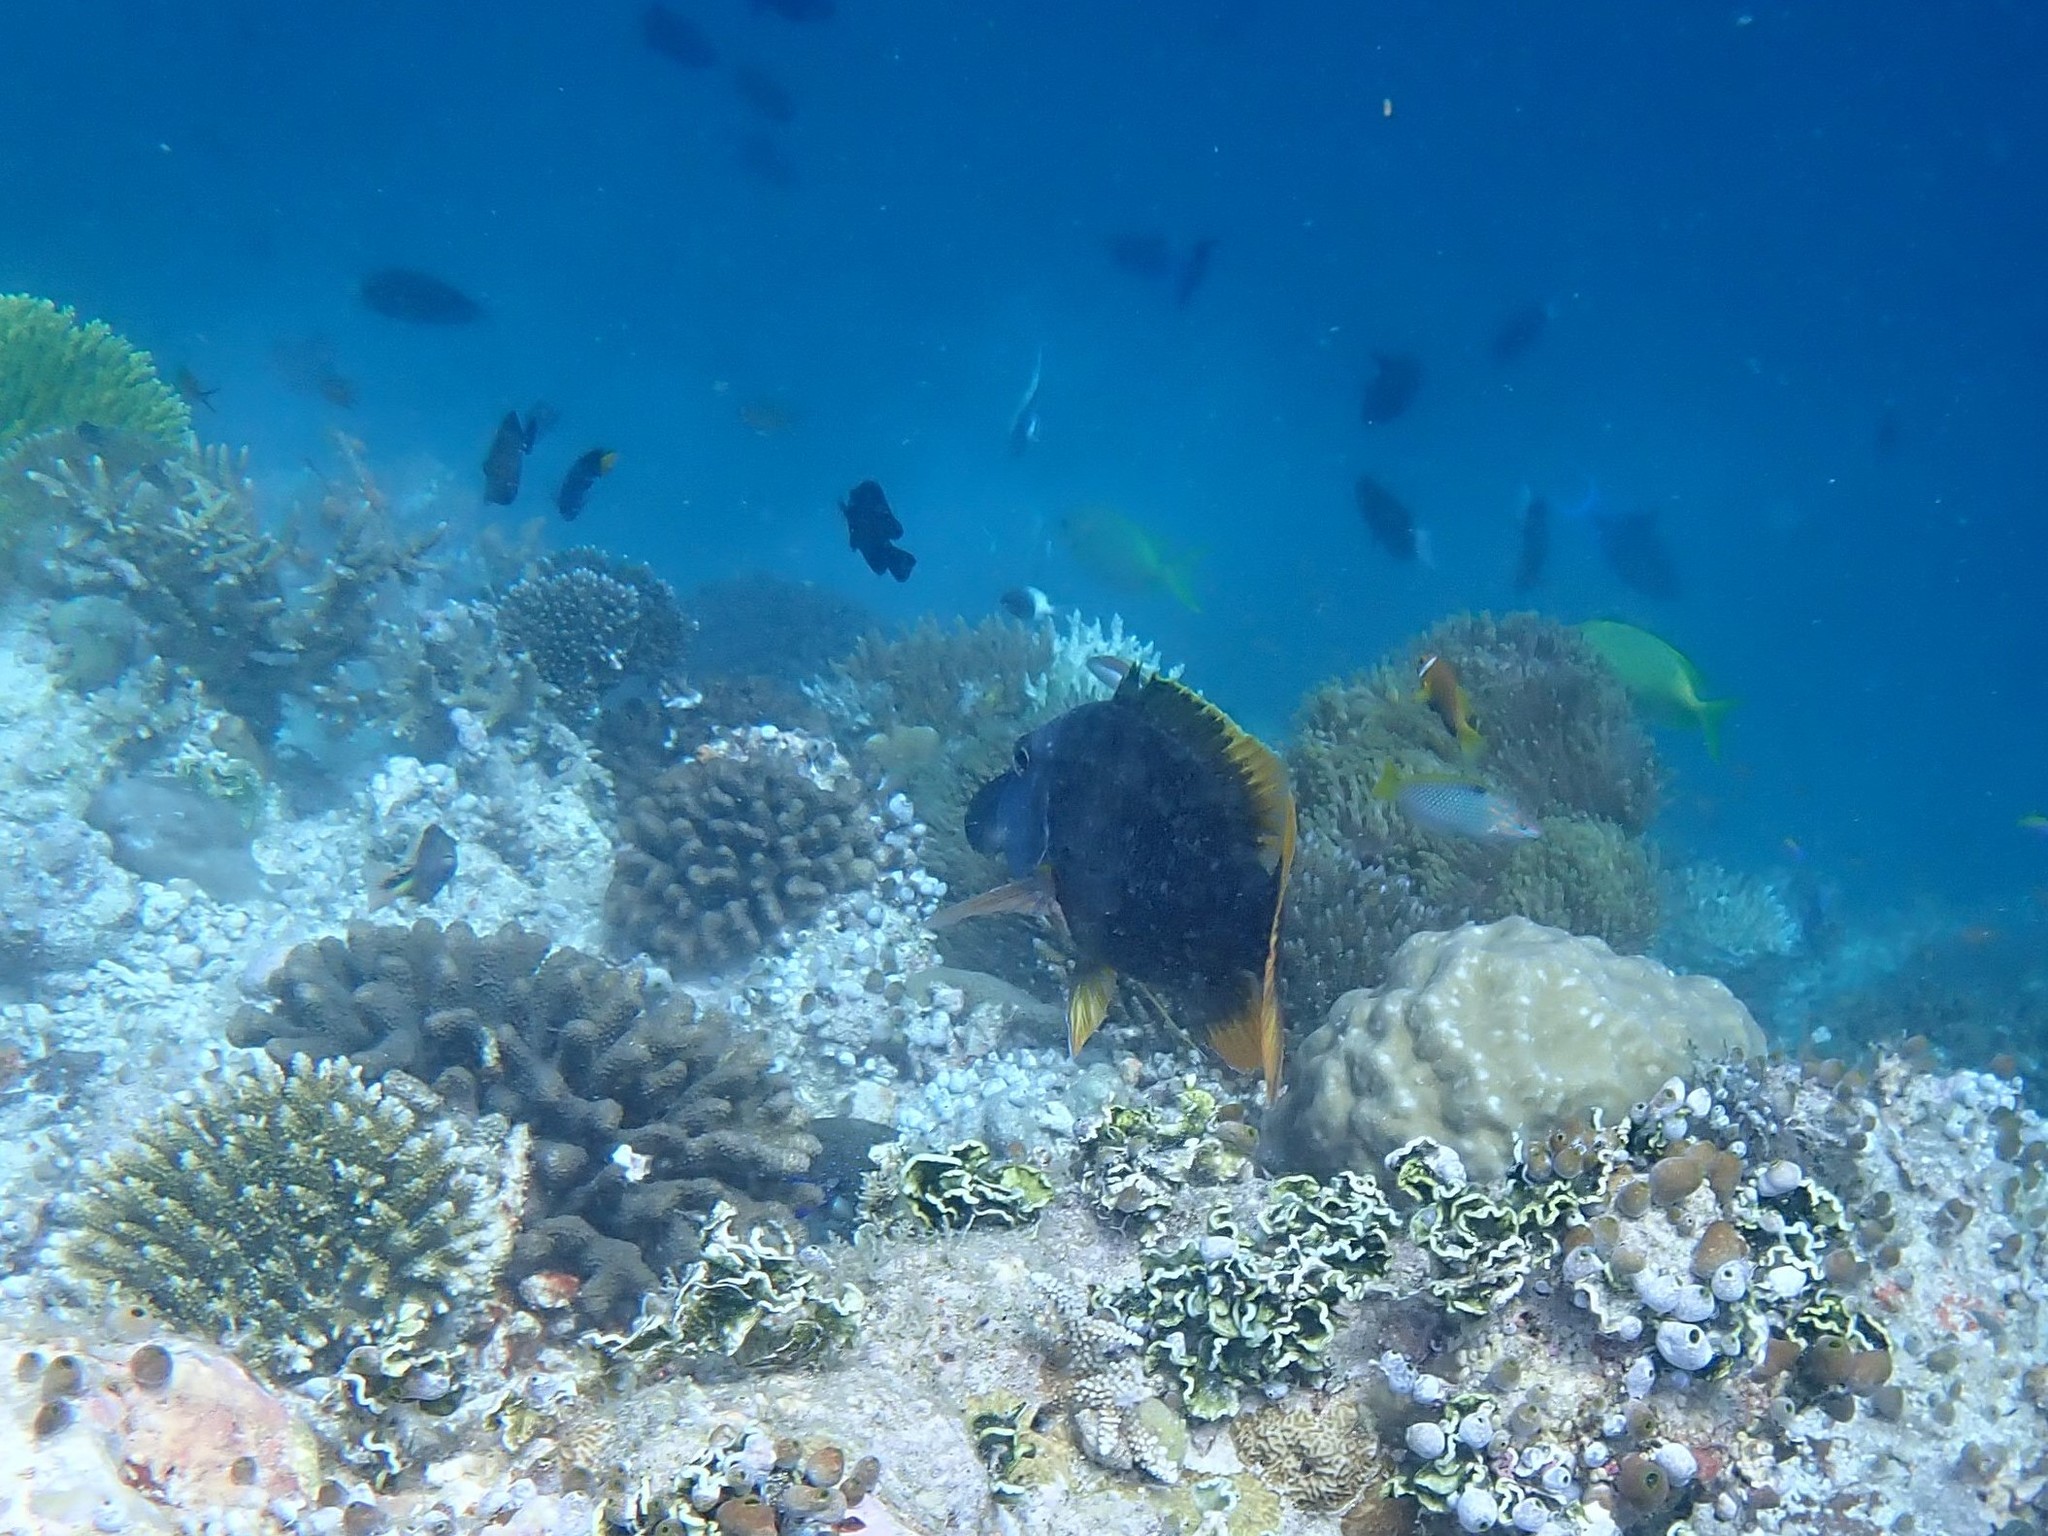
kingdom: Animalia
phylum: Chordata
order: Perciformes
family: Lethrinidae
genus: Lethrinus
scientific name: Lethrinus erythracanthus
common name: Orange-spotted emperor
